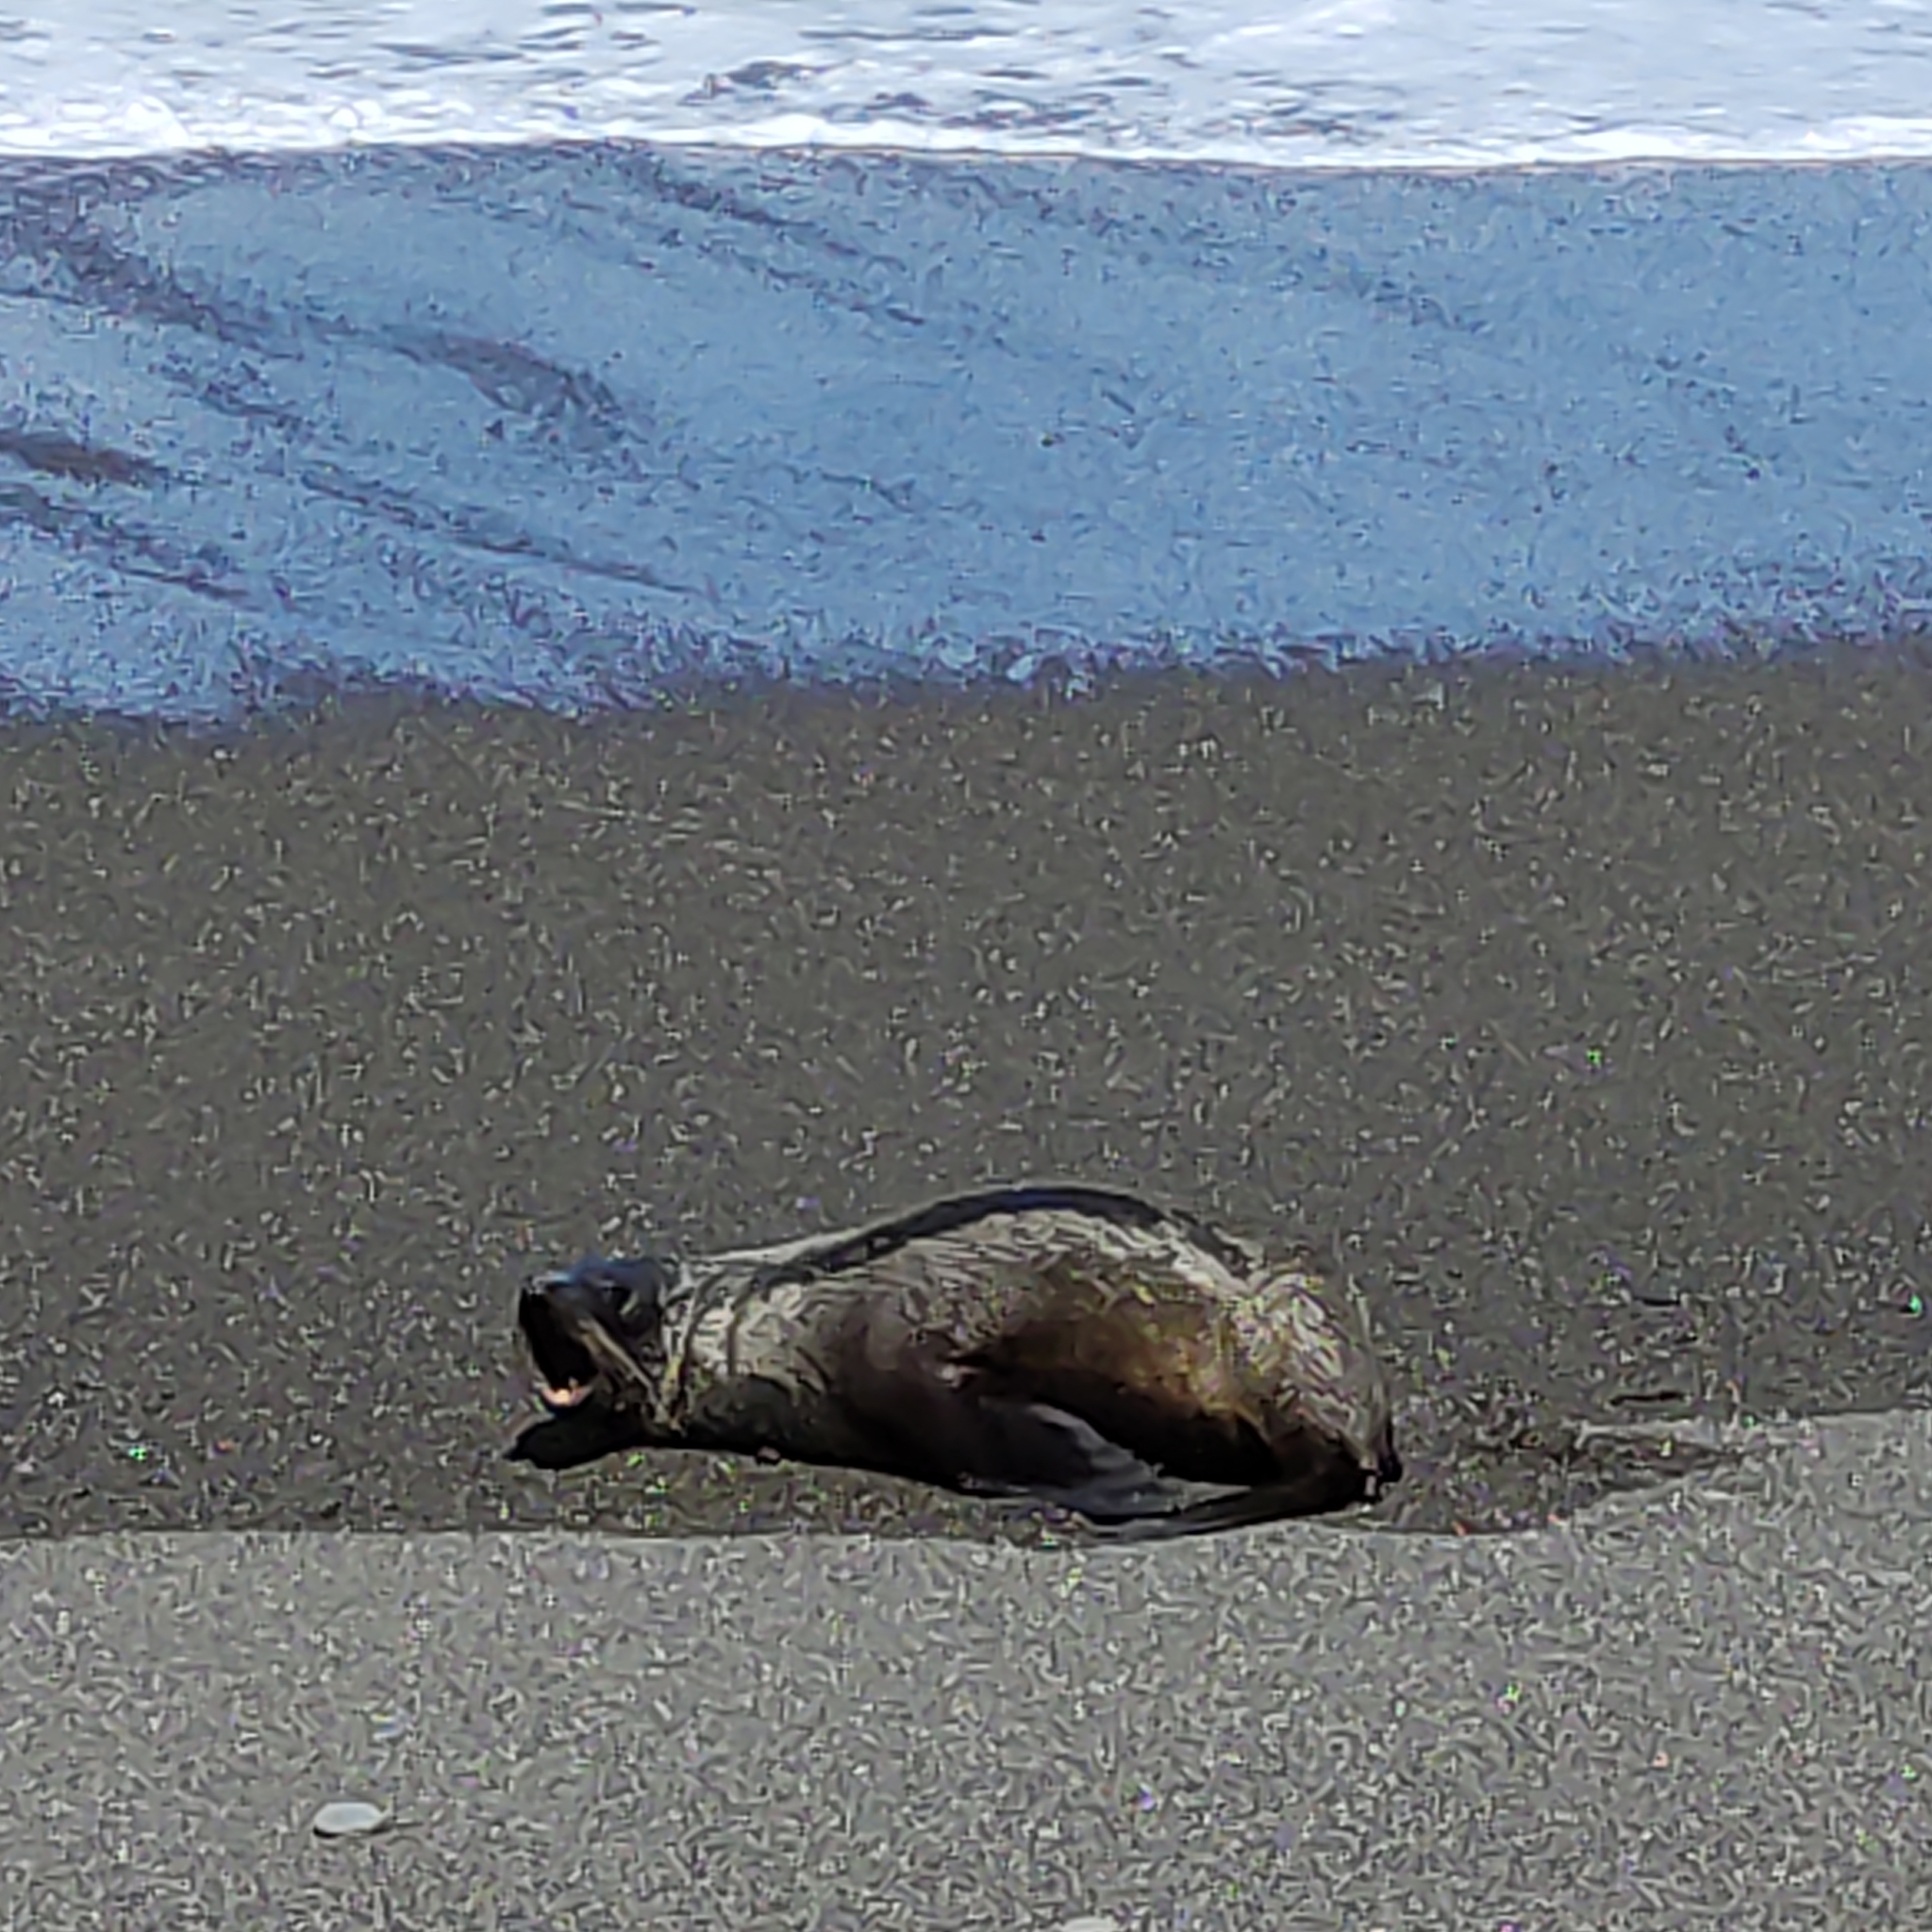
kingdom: Animalia
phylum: Chordata
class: Mammalia
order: Carnivora
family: Otariidae
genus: Arctocephalus
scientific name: Arctocephalus forsteri
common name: New zealand fur seal
